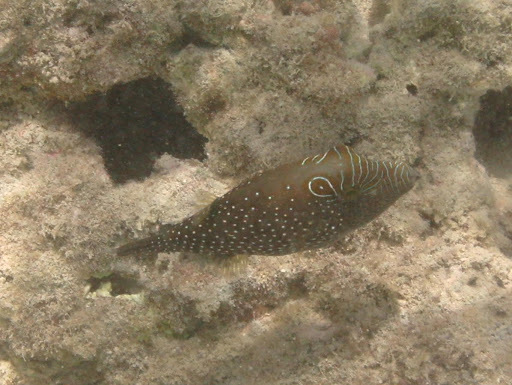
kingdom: Animalia
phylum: Chordata
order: Tetraodontiformes
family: Tetraodontidae
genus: Canthigaster
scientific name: Canthigaster amboinensis
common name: Ambon pufferfish
